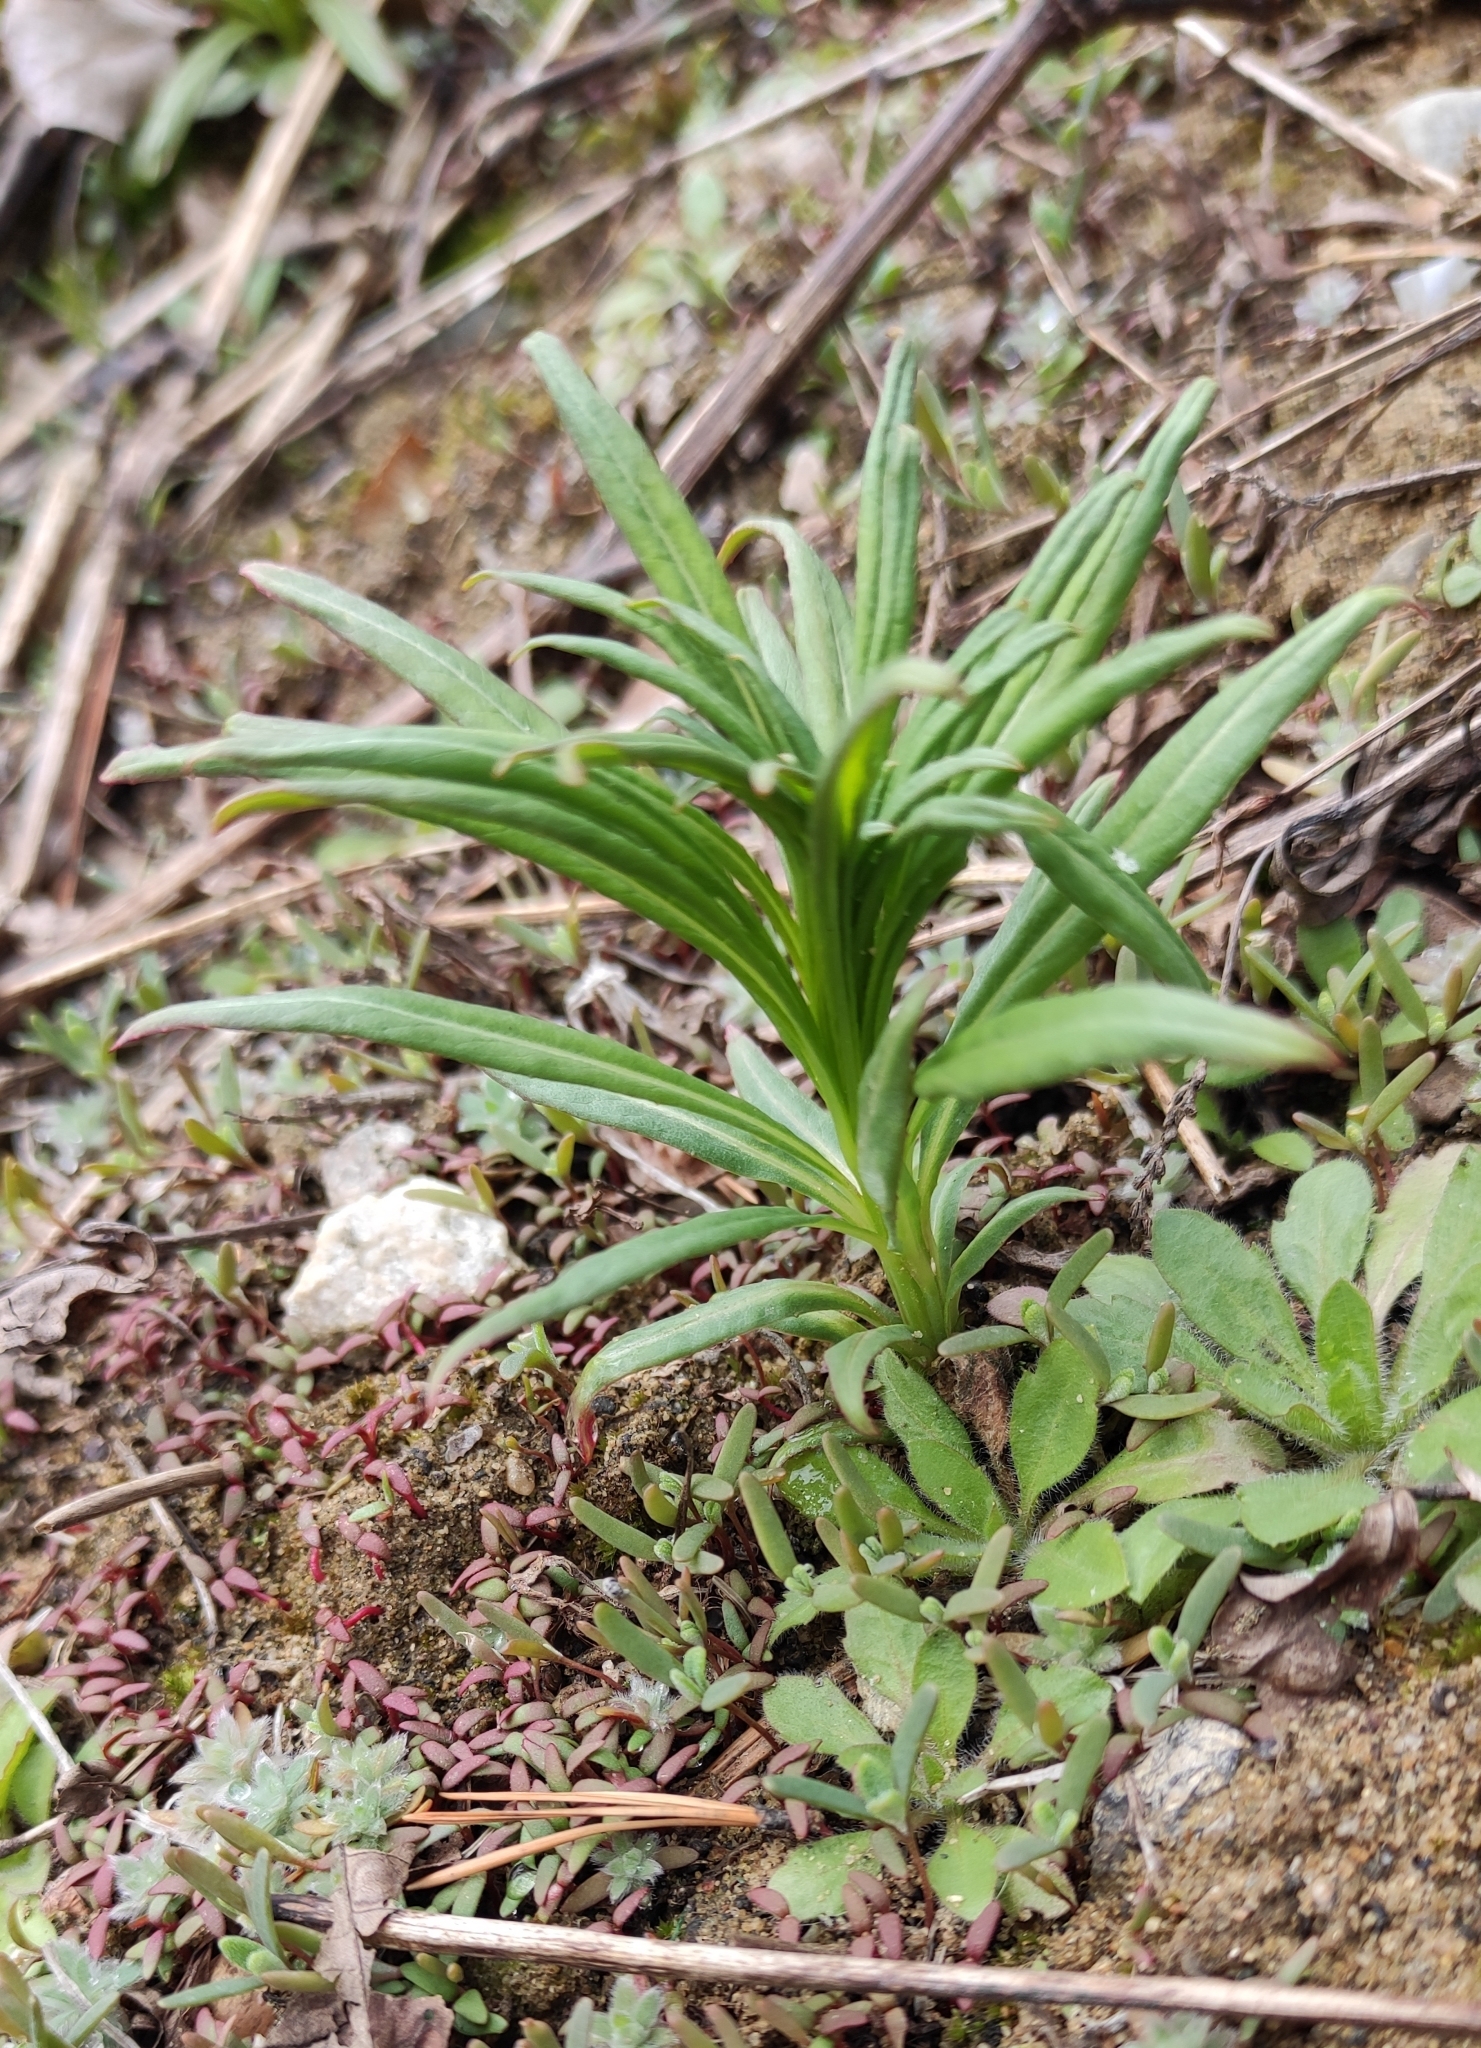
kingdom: Plantae
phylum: Tracheophyta
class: Magnoliopsida
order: Myrtales
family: Onagraceae
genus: Chamaenerion
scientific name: Chamaenerion angustifolium
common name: Fireweed
